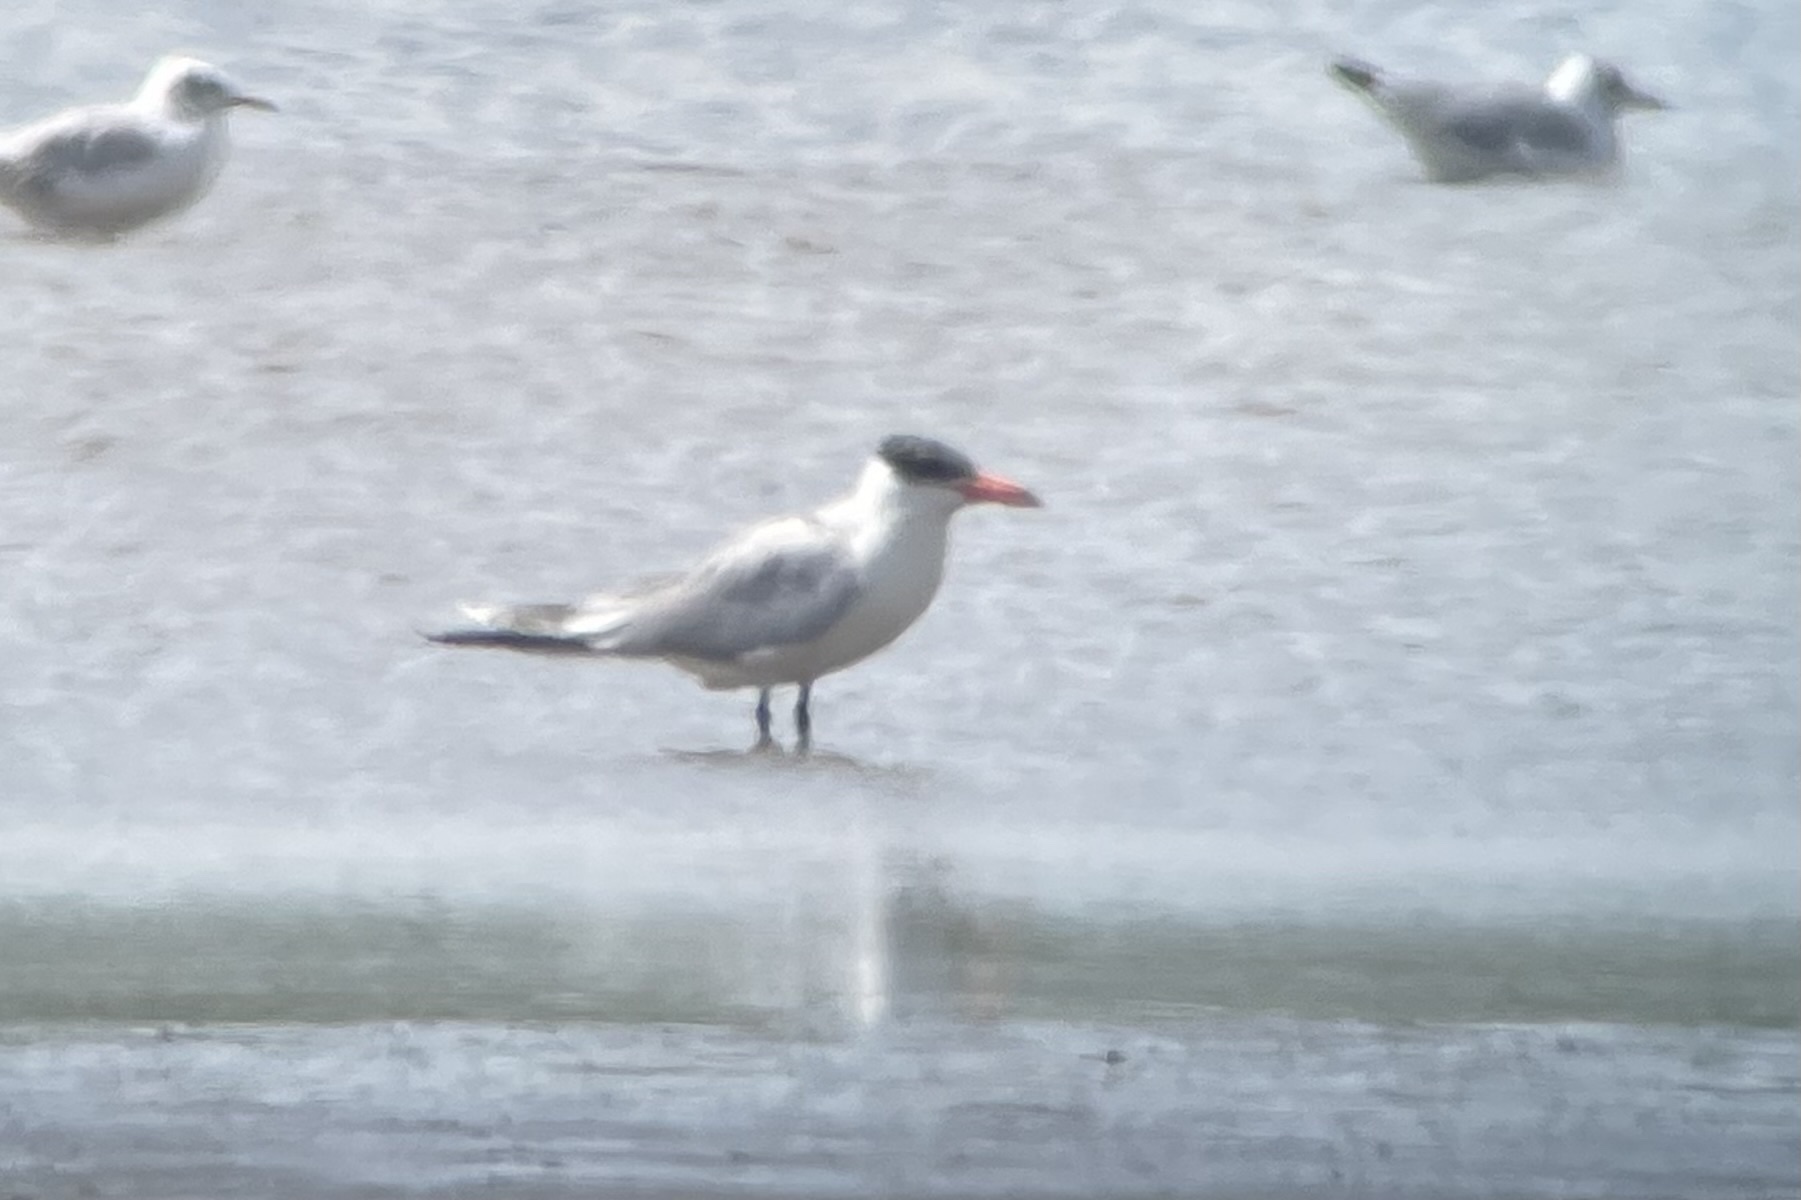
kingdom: Animalia
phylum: Chordata
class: Aves
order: Charadriiformes
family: Laridae
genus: Hydroprogne
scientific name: Hydroprogne caspia
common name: Caspian tern
